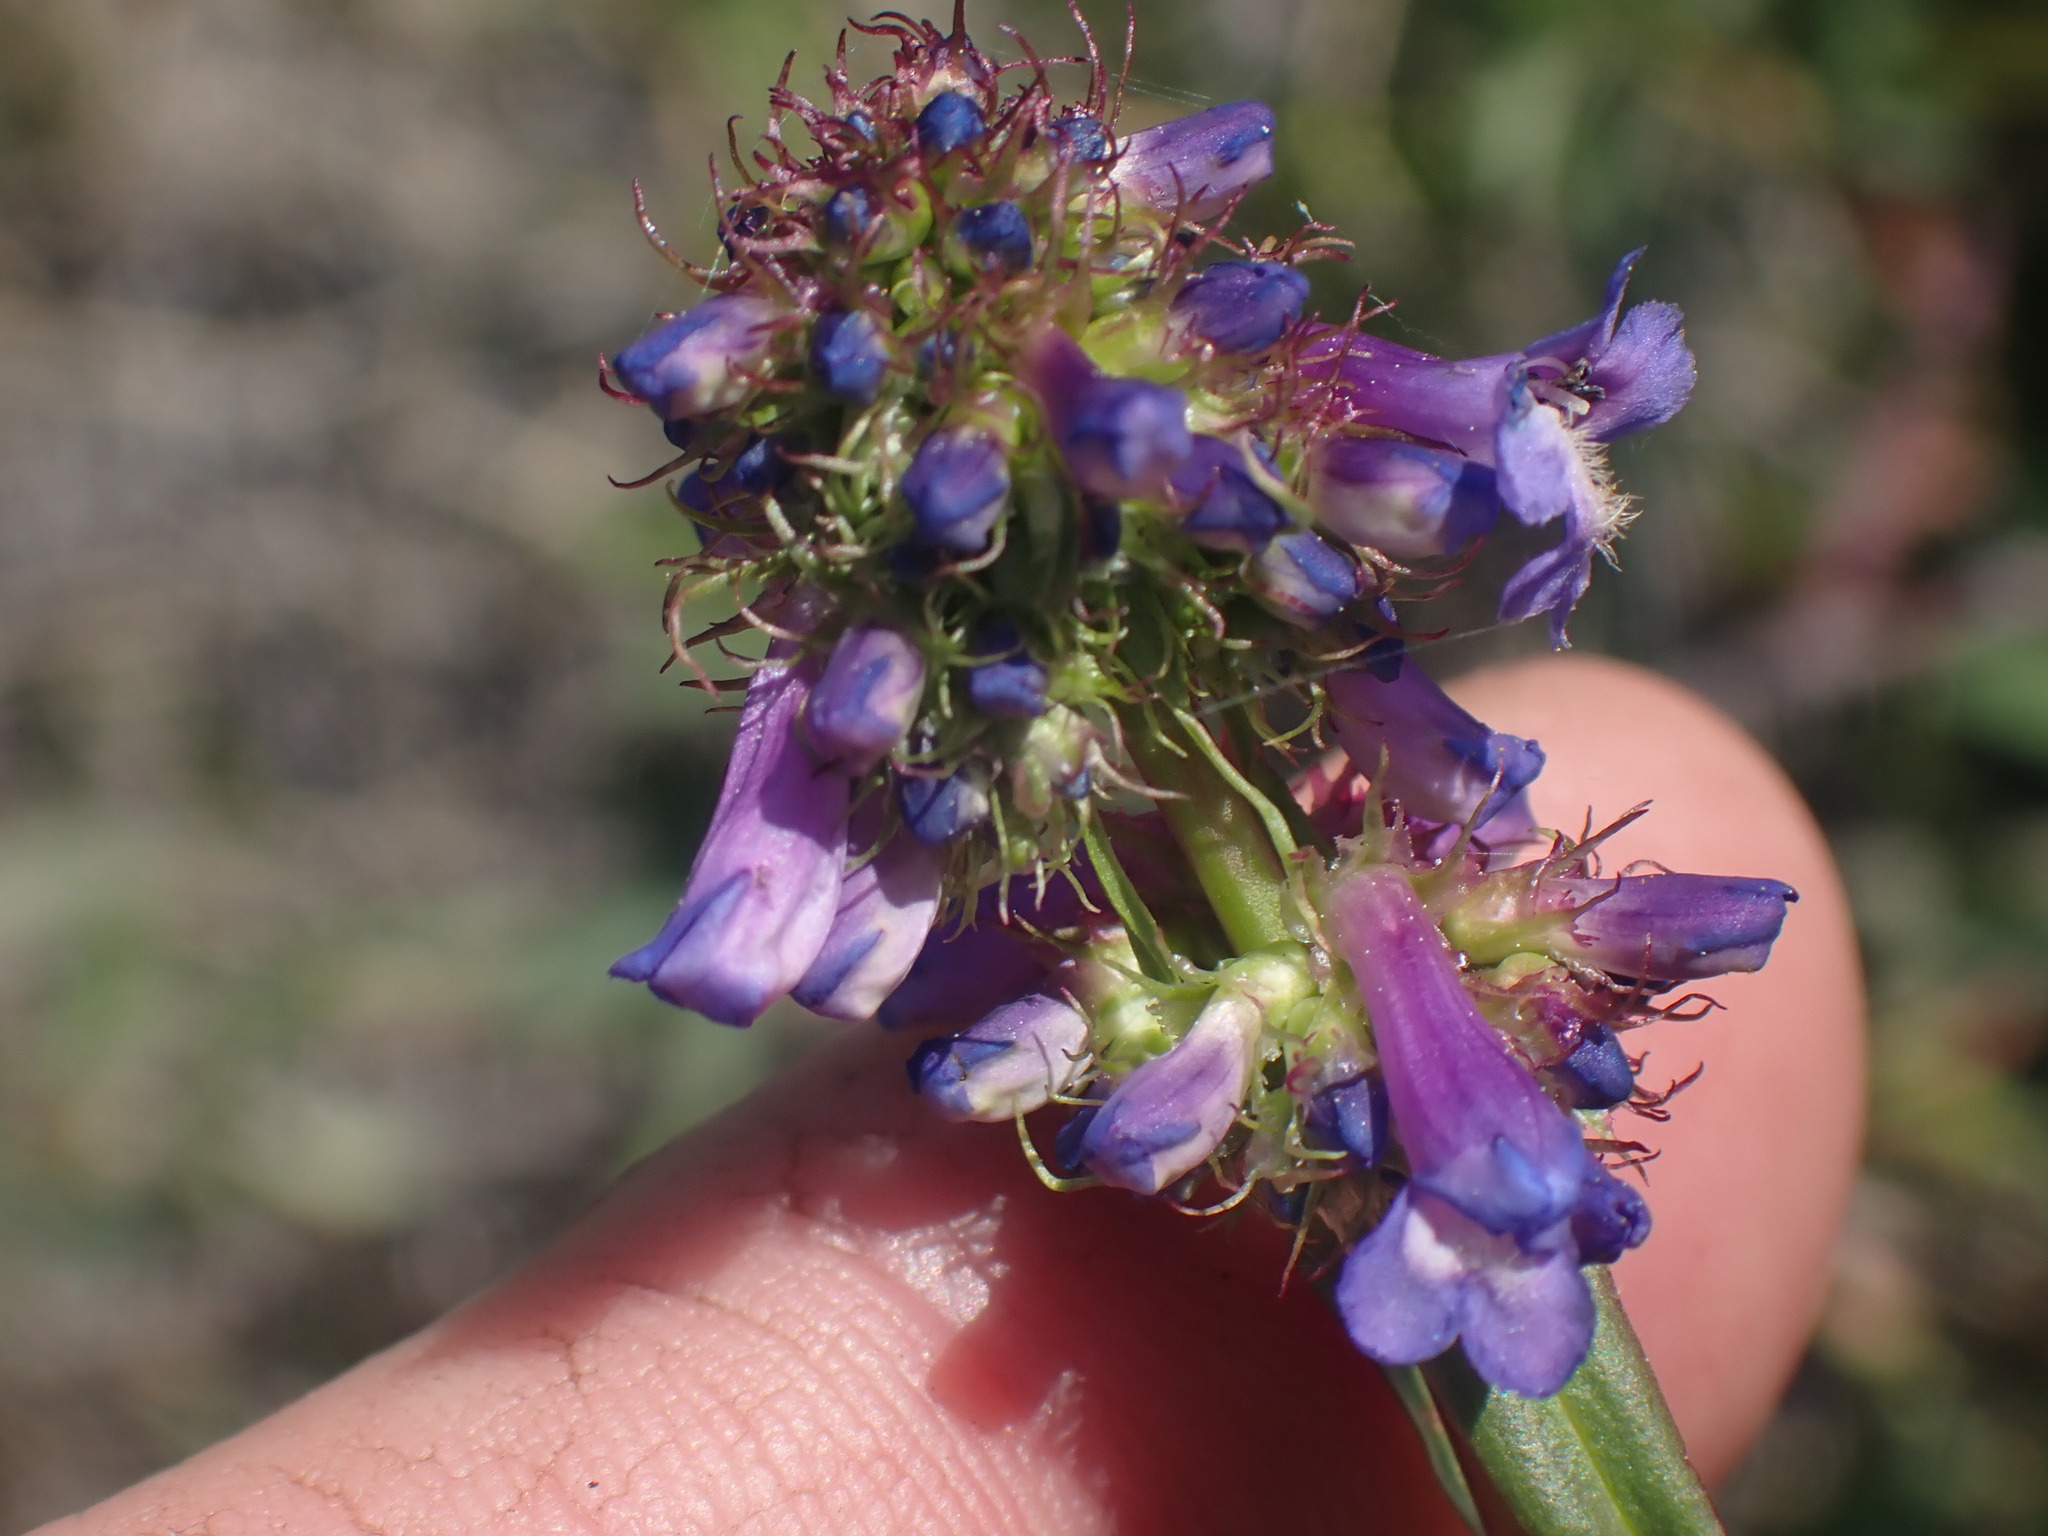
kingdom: Plantae
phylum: Tracheophyta
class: Magnoliopsida
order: Lamiales
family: Plantaginaceae
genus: Penstemon
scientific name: Penstemon procerus
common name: Small-flower penstemon
